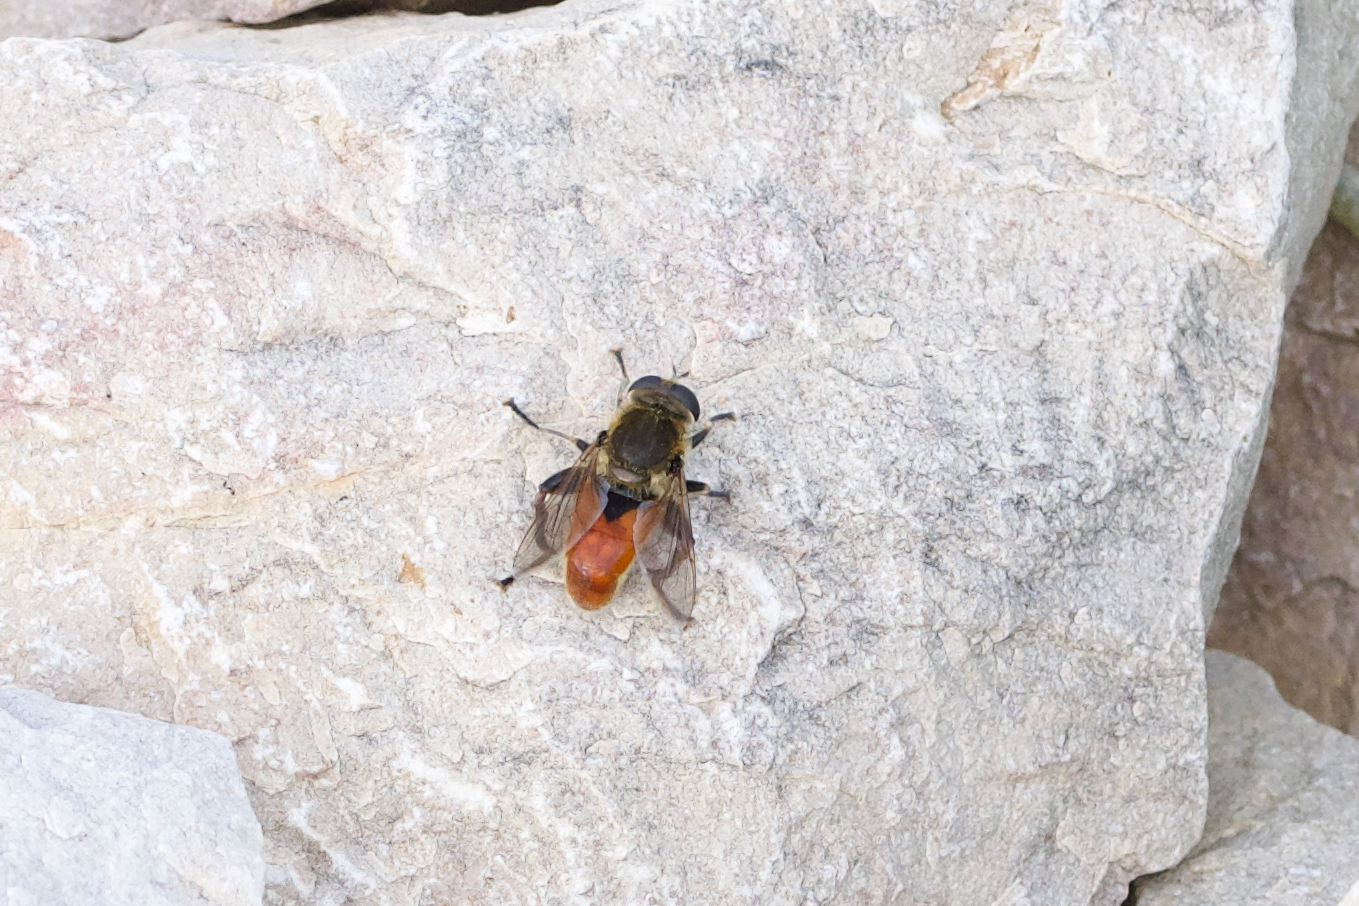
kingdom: Animalia
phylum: Arthropoda
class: Insecta
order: Diptera
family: Syrphidae
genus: Polydontomyia
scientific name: Polydontomyia curvipes
